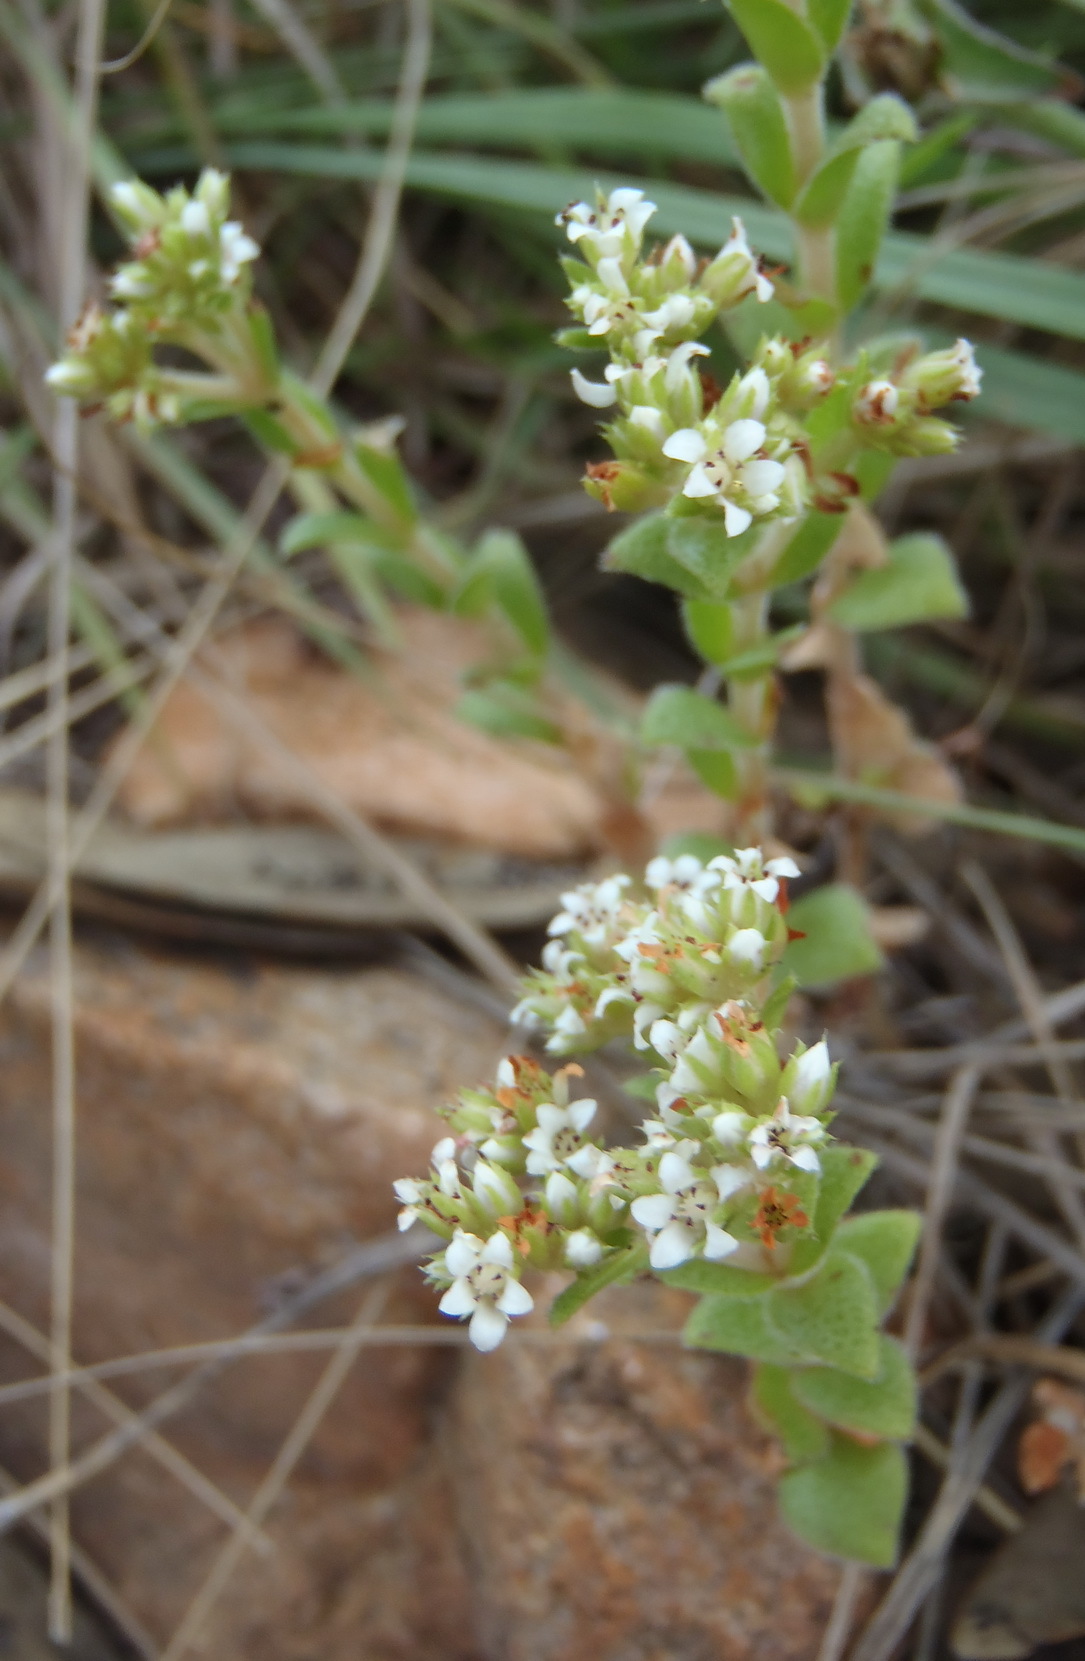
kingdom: Plantae
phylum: Tracheophyta
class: Magnoliopsida
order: Saxifragales
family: Crassulaceae
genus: Crassula
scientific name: Crassula setulosa
